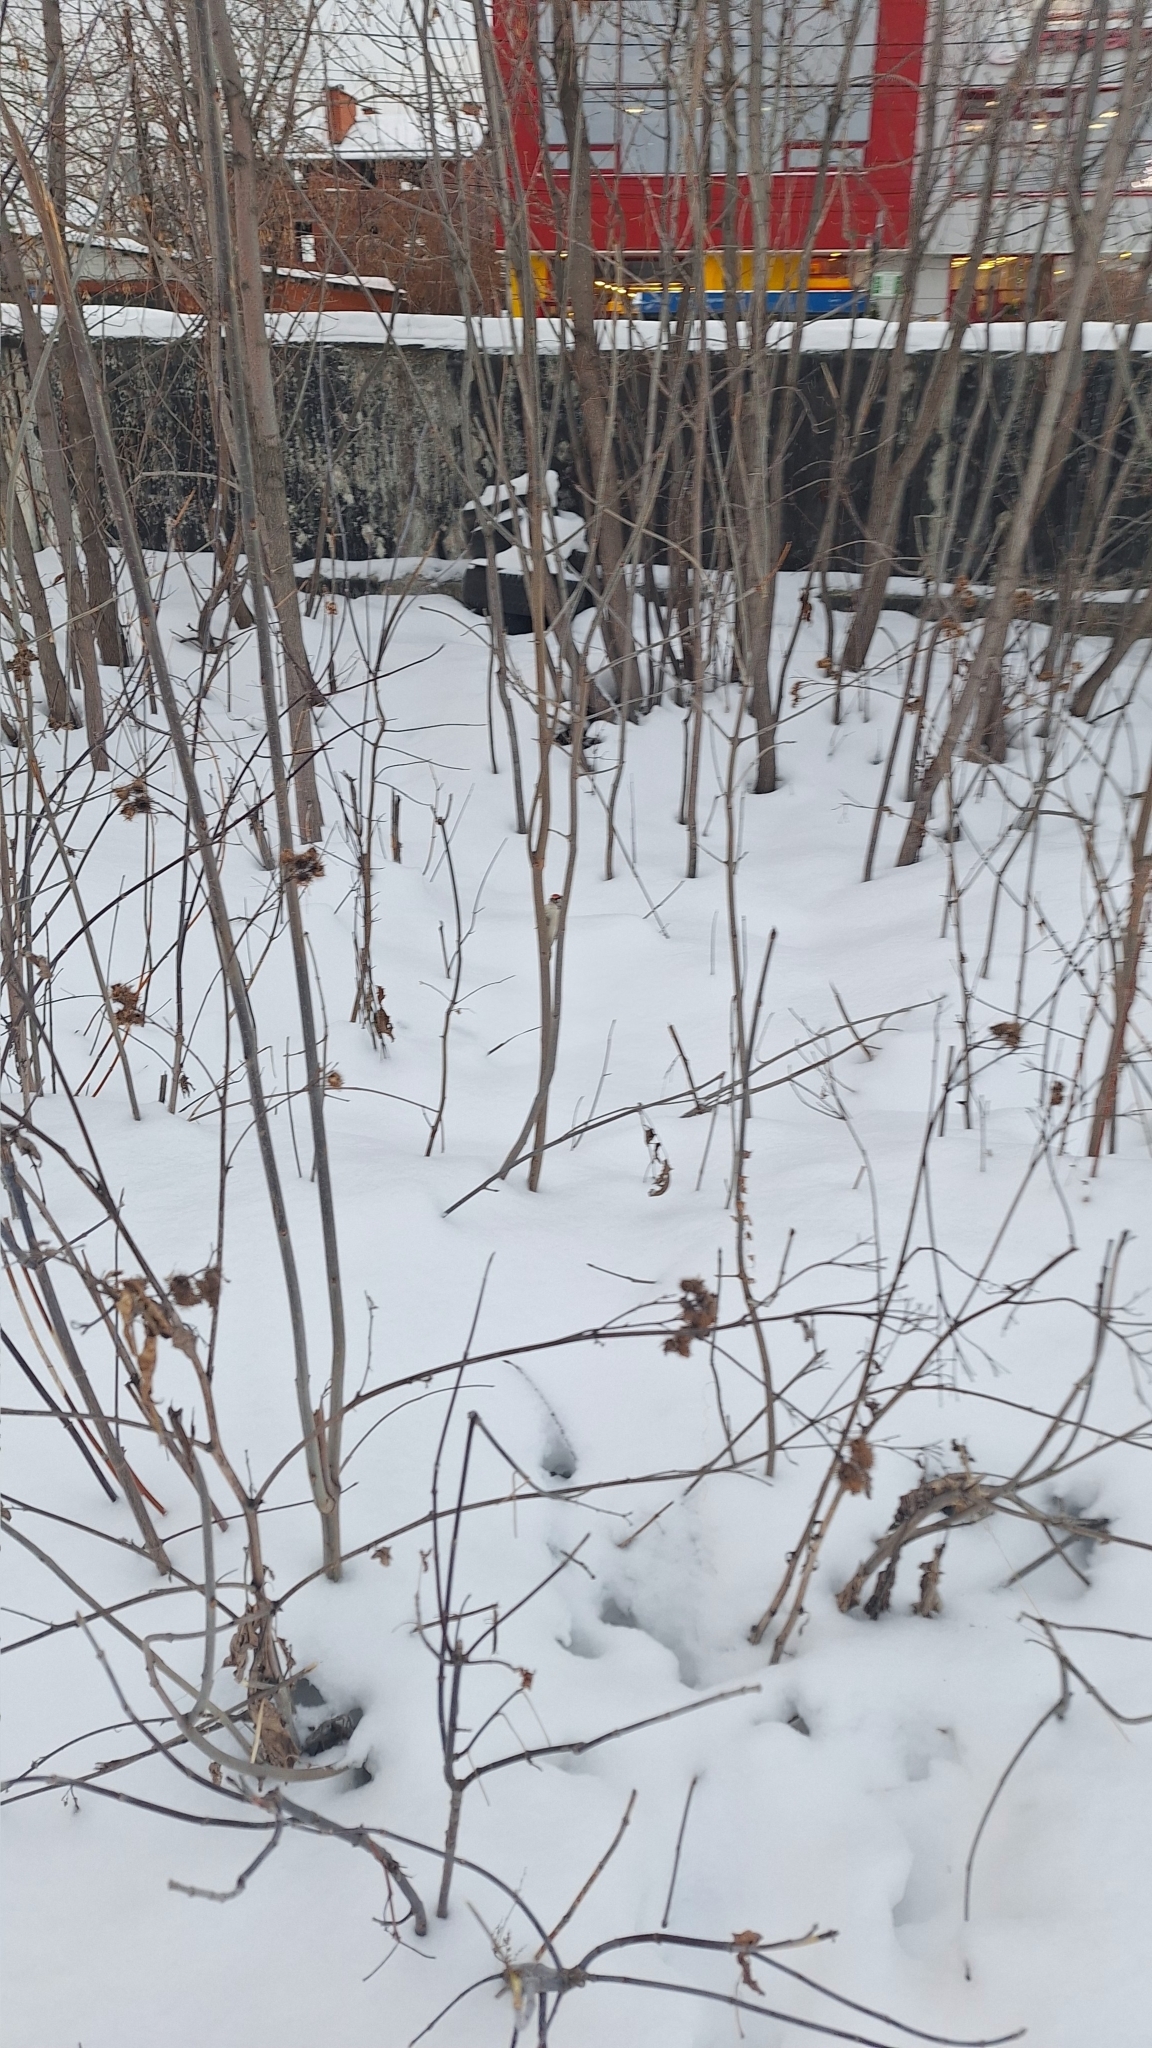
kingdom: Animalia
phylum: Chordata
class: Aves
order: Piciformes
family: Picidae
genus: Dryobates
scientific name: Dryobates minor
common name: Lesser spotted woodpecker
